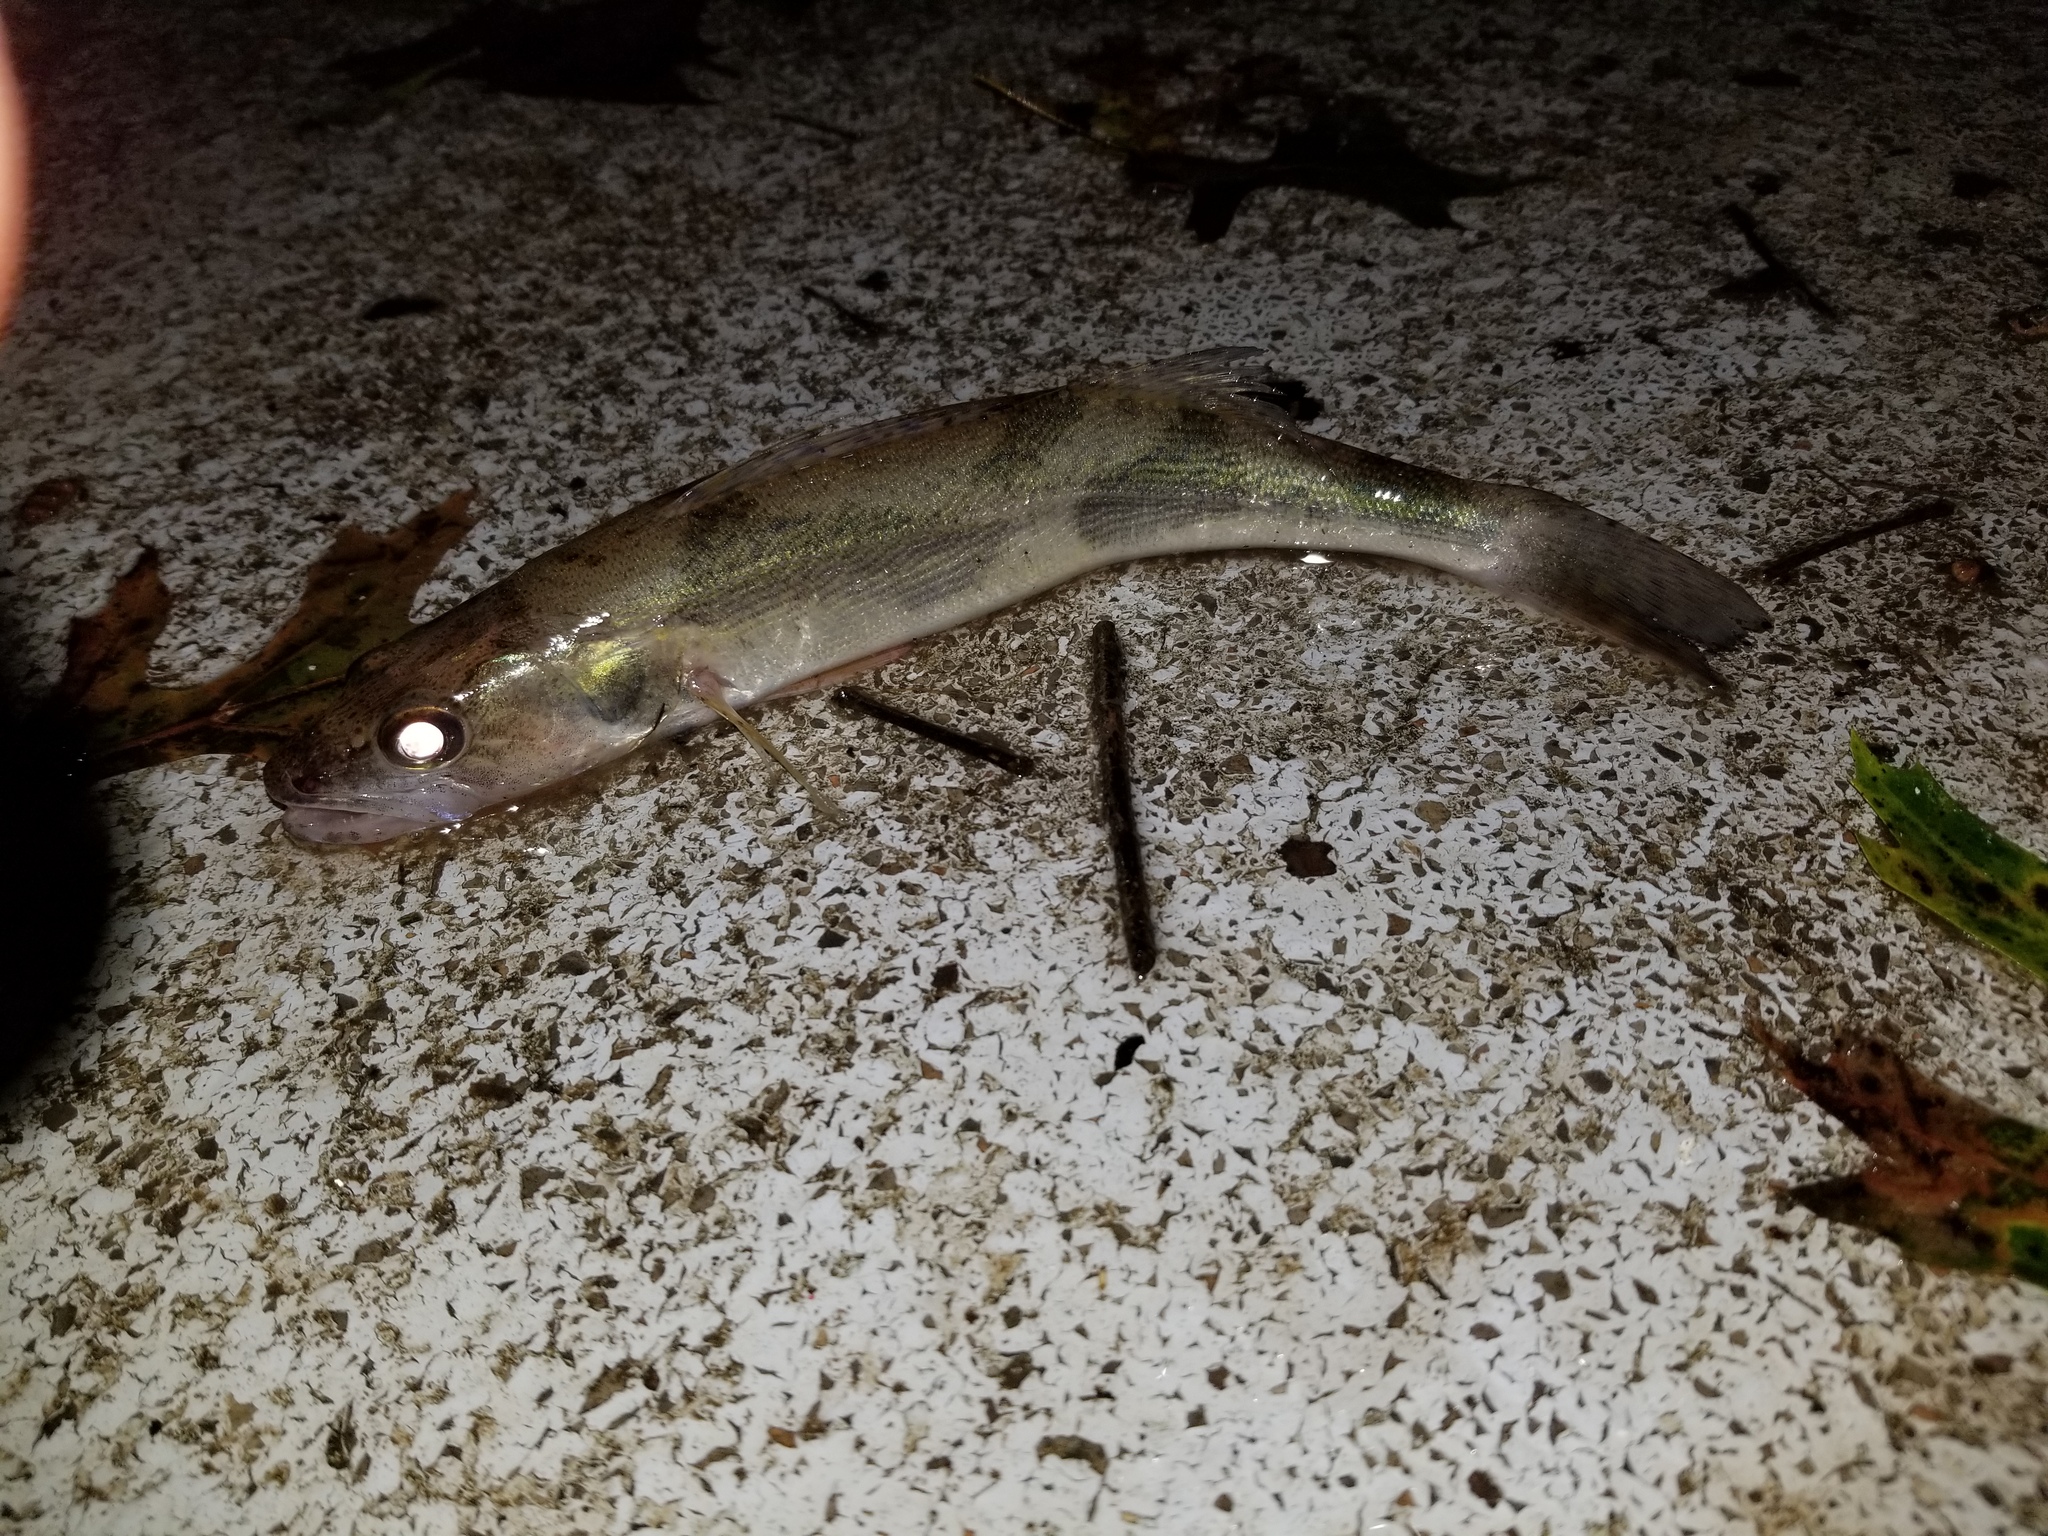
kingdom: Animalia
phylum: Chordata
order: Perciformes
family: Percidae
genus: Sander
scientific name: Sander canadensis
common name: Sauger
